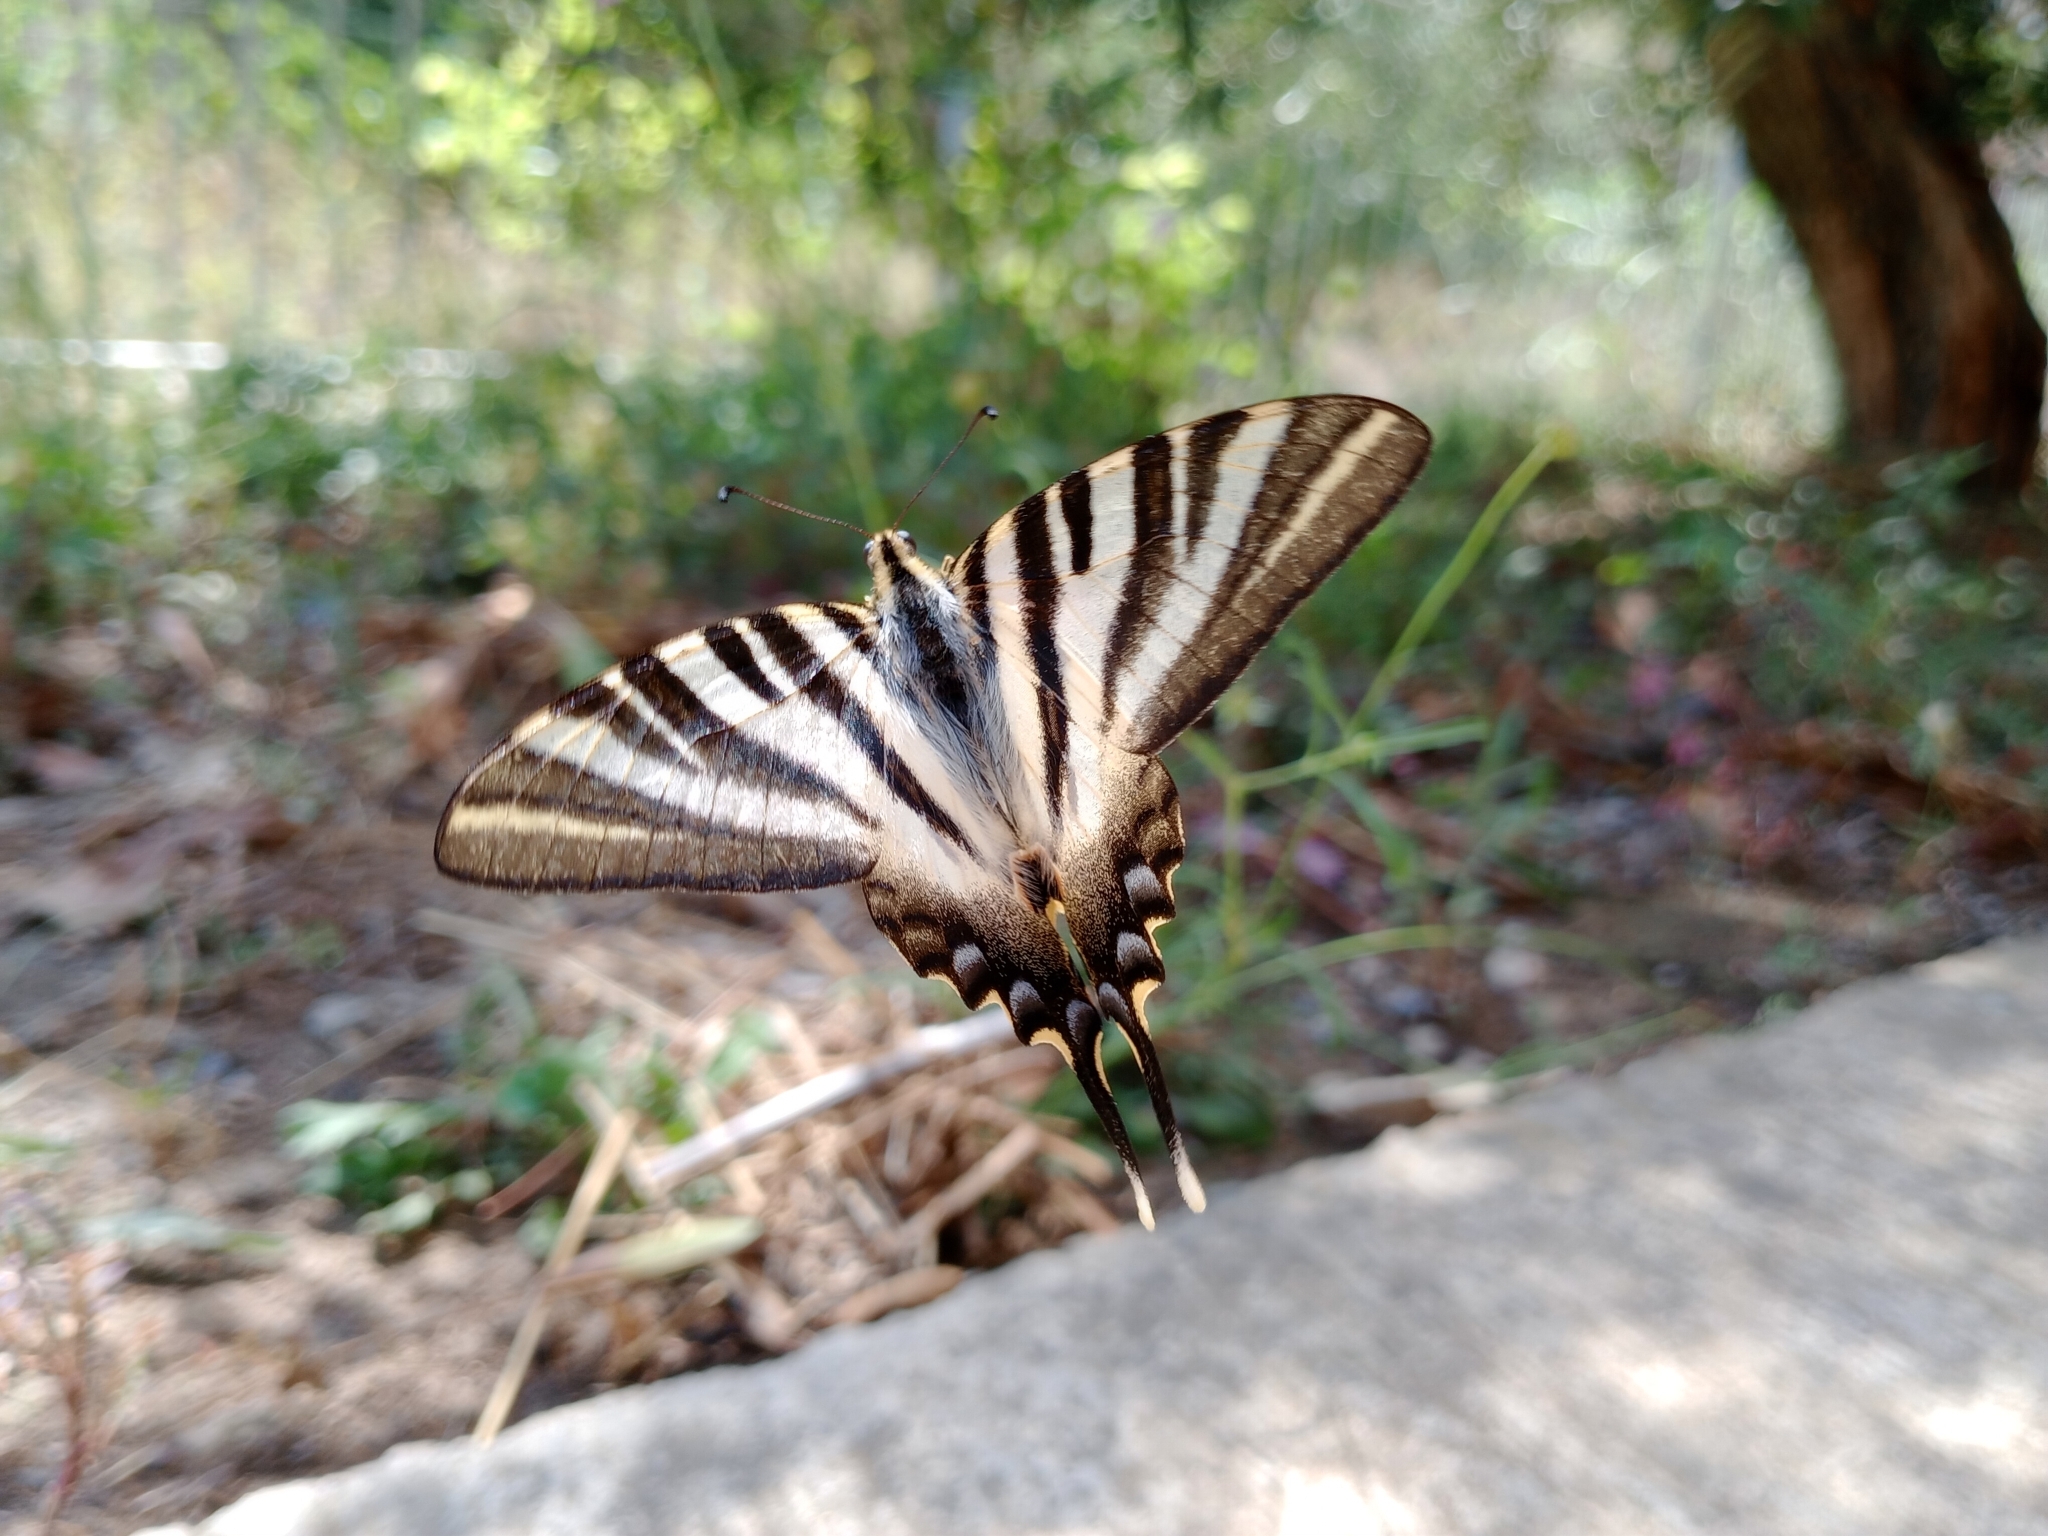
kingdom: Animalia
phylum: Arthropoda
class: Insecta
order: Lepidoptera
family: Papilionidae
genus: Iphiclides
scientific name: Iphiclides feisthamelii
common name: Iberian scarce swallowtail
